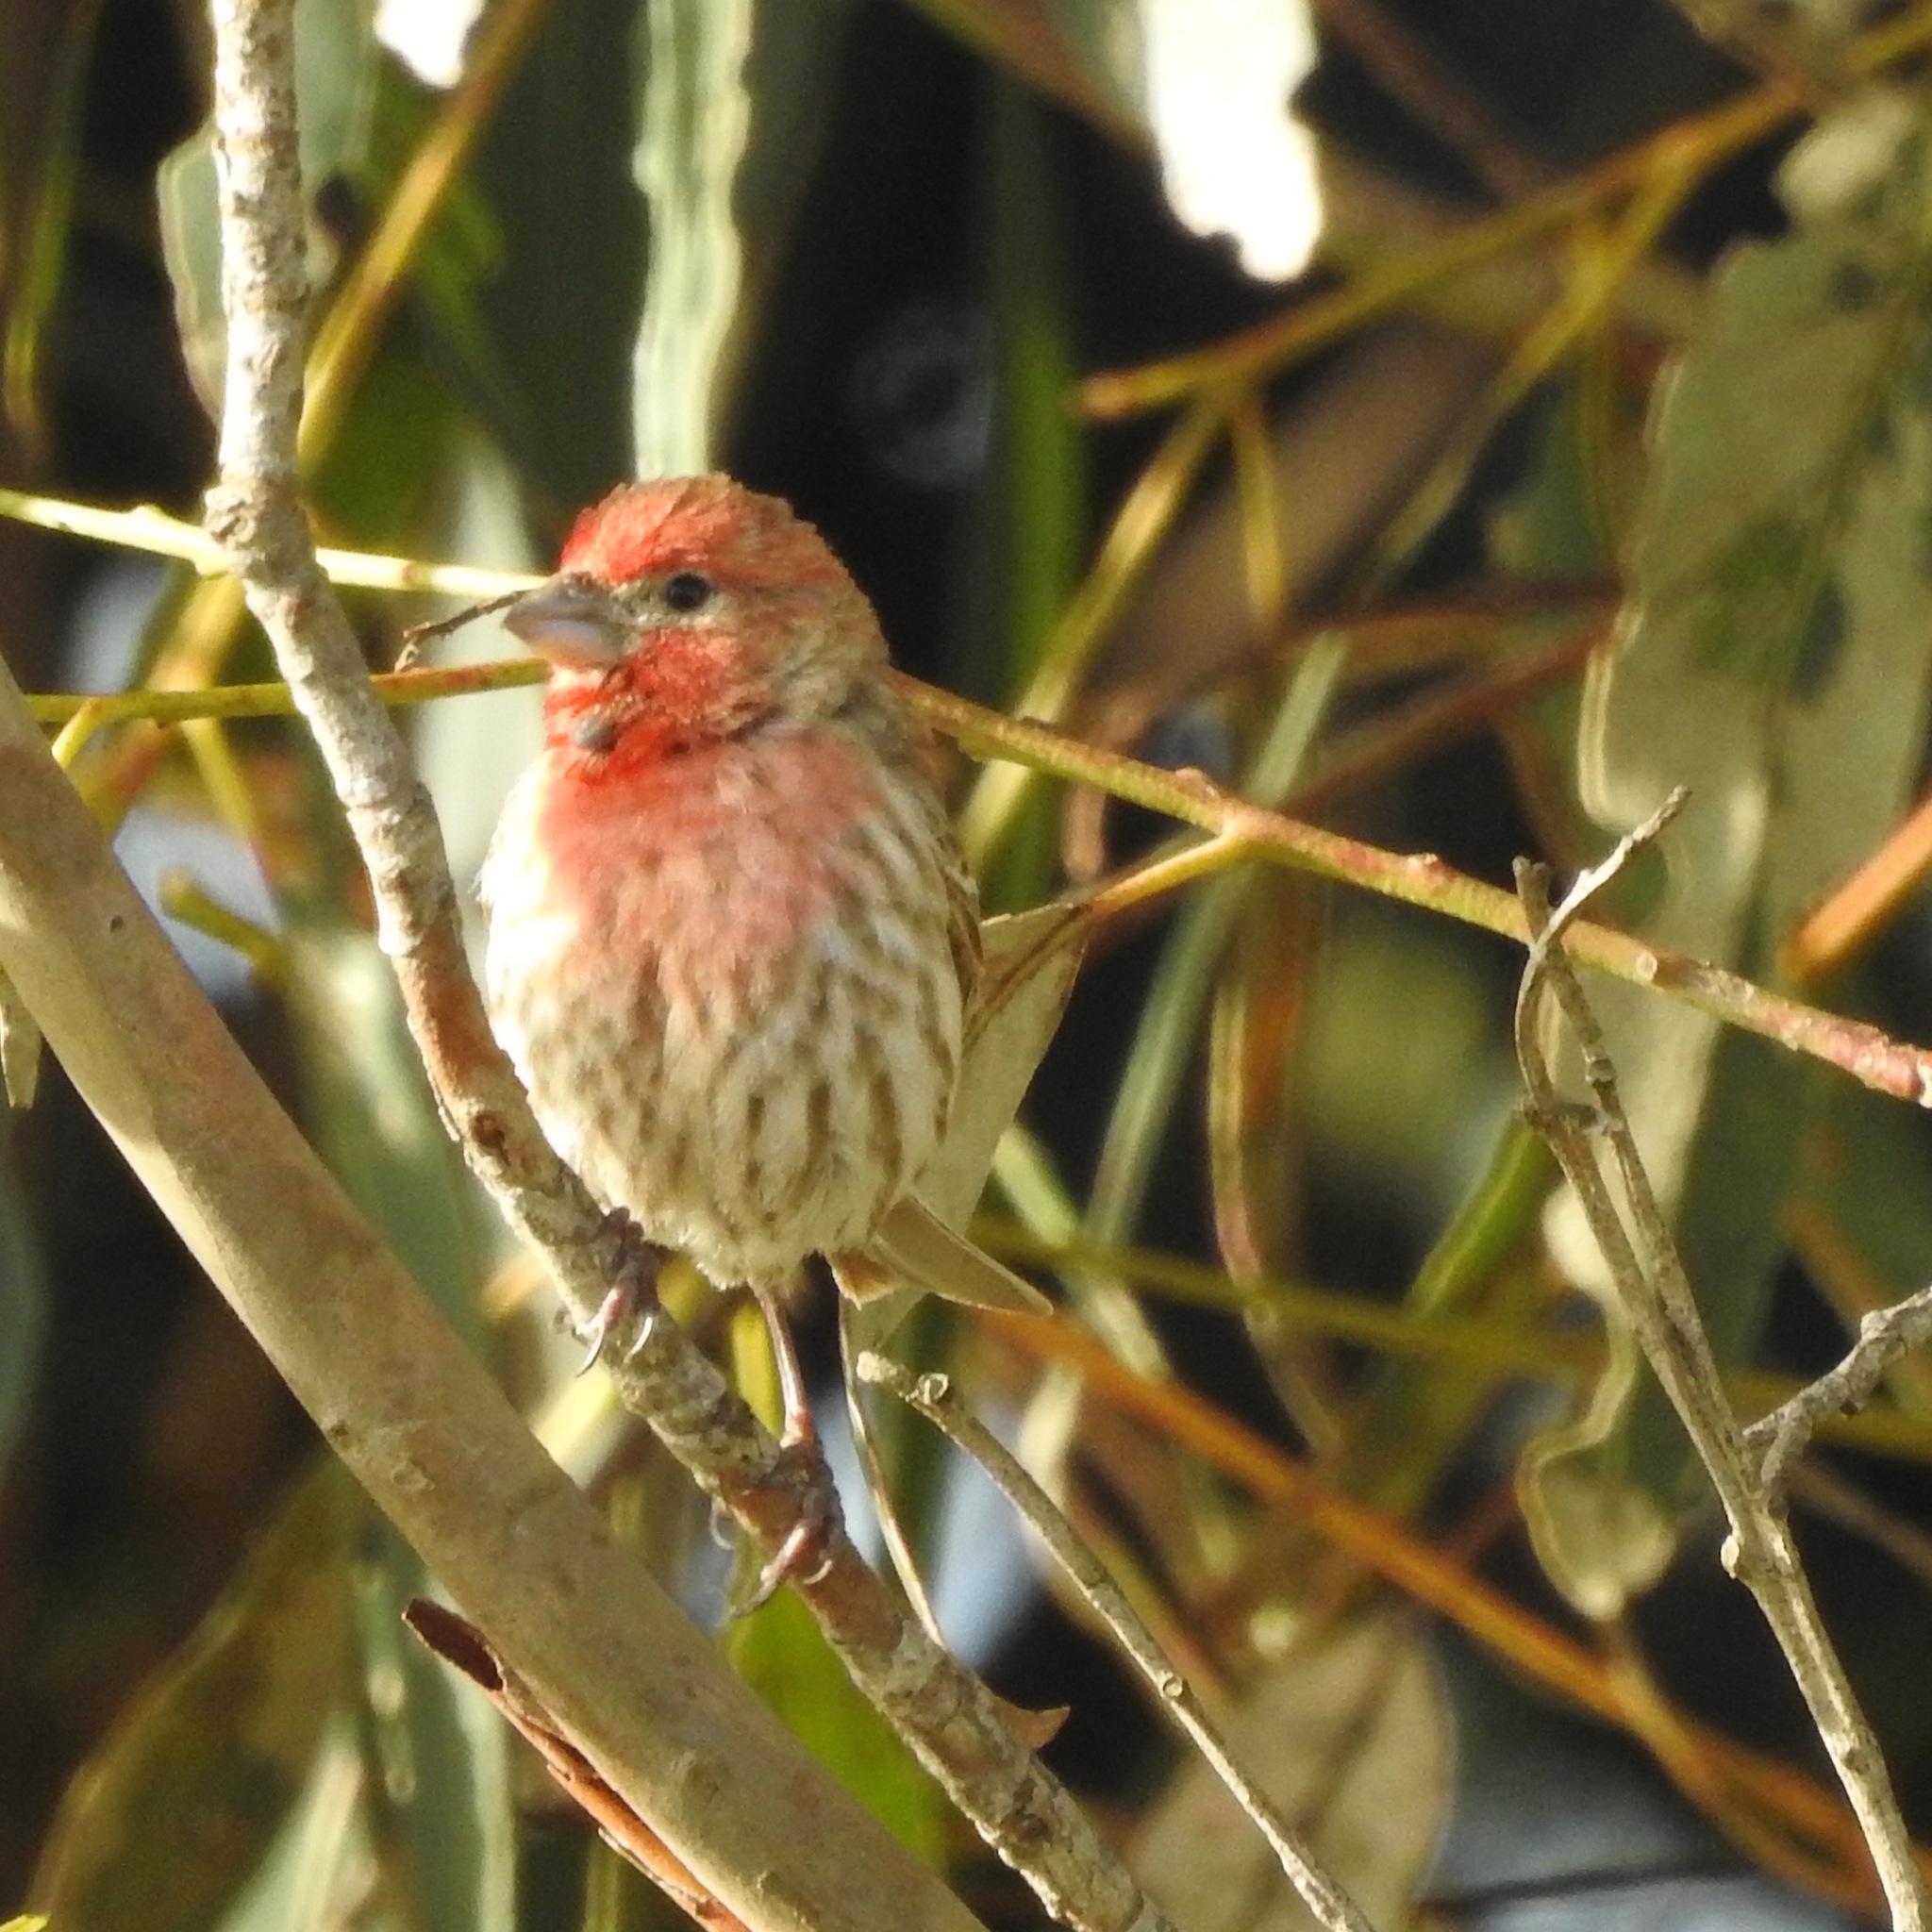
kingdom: Animalia
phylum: Chordata
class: Aves
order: Passeriformes
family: Fringillidae
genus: Haemorhous
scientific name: Haemorhous mexicanus
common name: House finch
